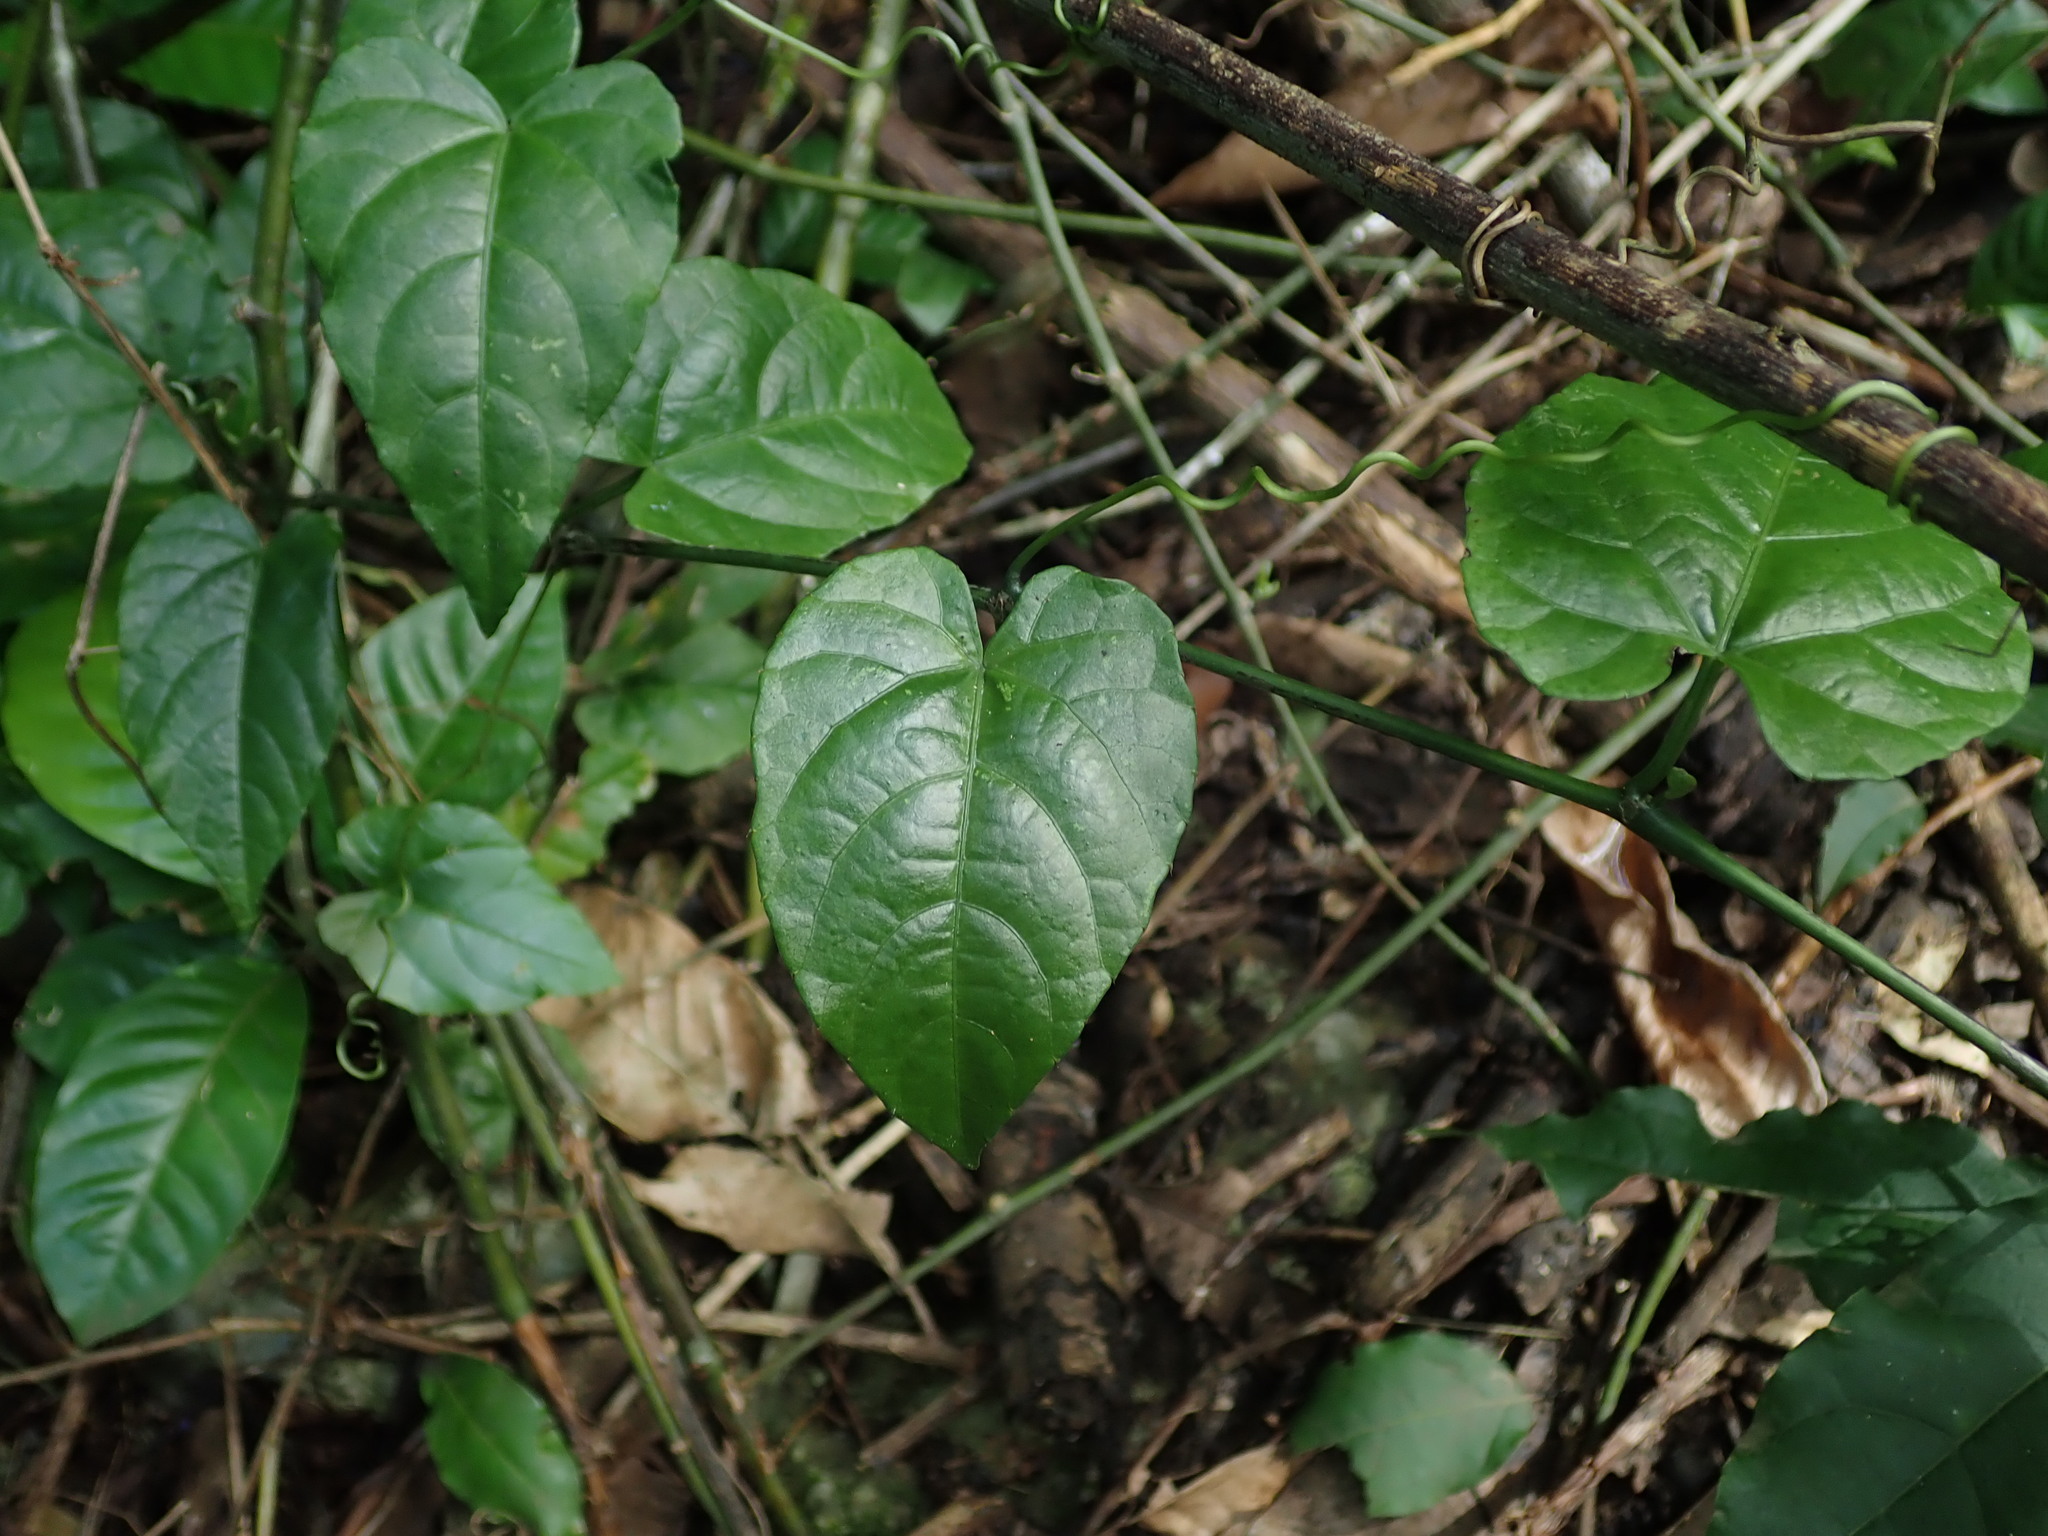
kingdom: Plantae
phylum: Tracheophyta
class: Magnoliopsida
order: Vitales
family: Vitaceae
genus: Cissus
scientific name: Cissus verticillata
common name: Princess vine
